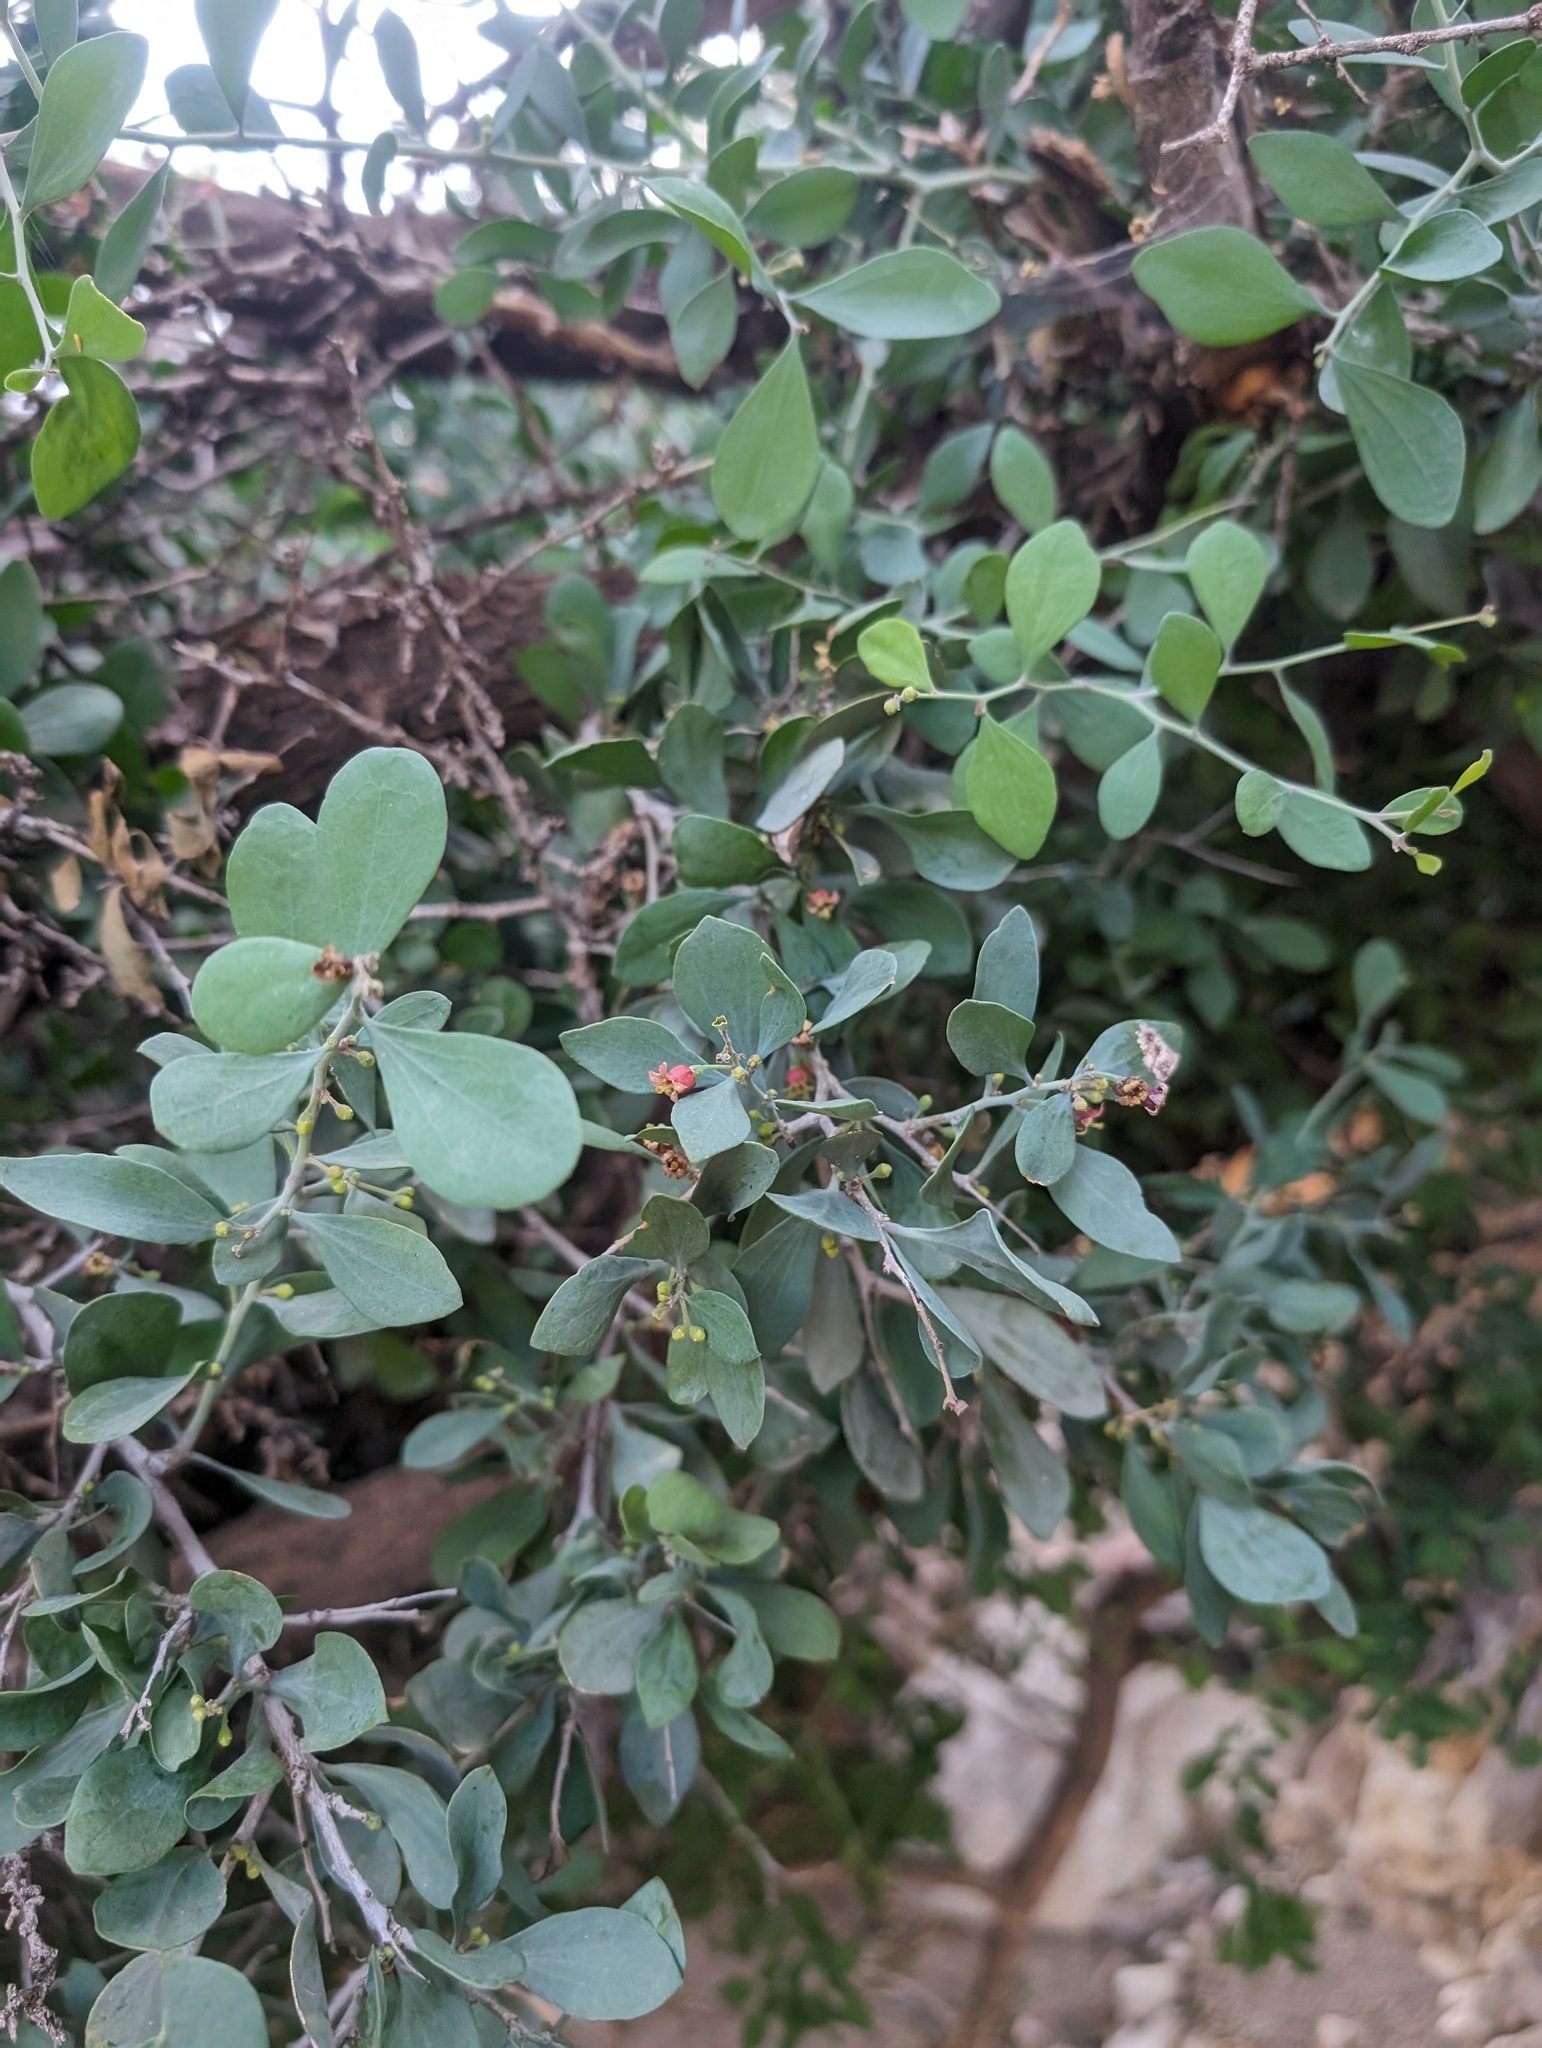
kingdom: Plantae
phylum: Tracheophyta
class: Magnoliopsida
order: Santalales
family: Schoepfiaceae
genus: Schoepfia
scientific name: Schoepfia californica
